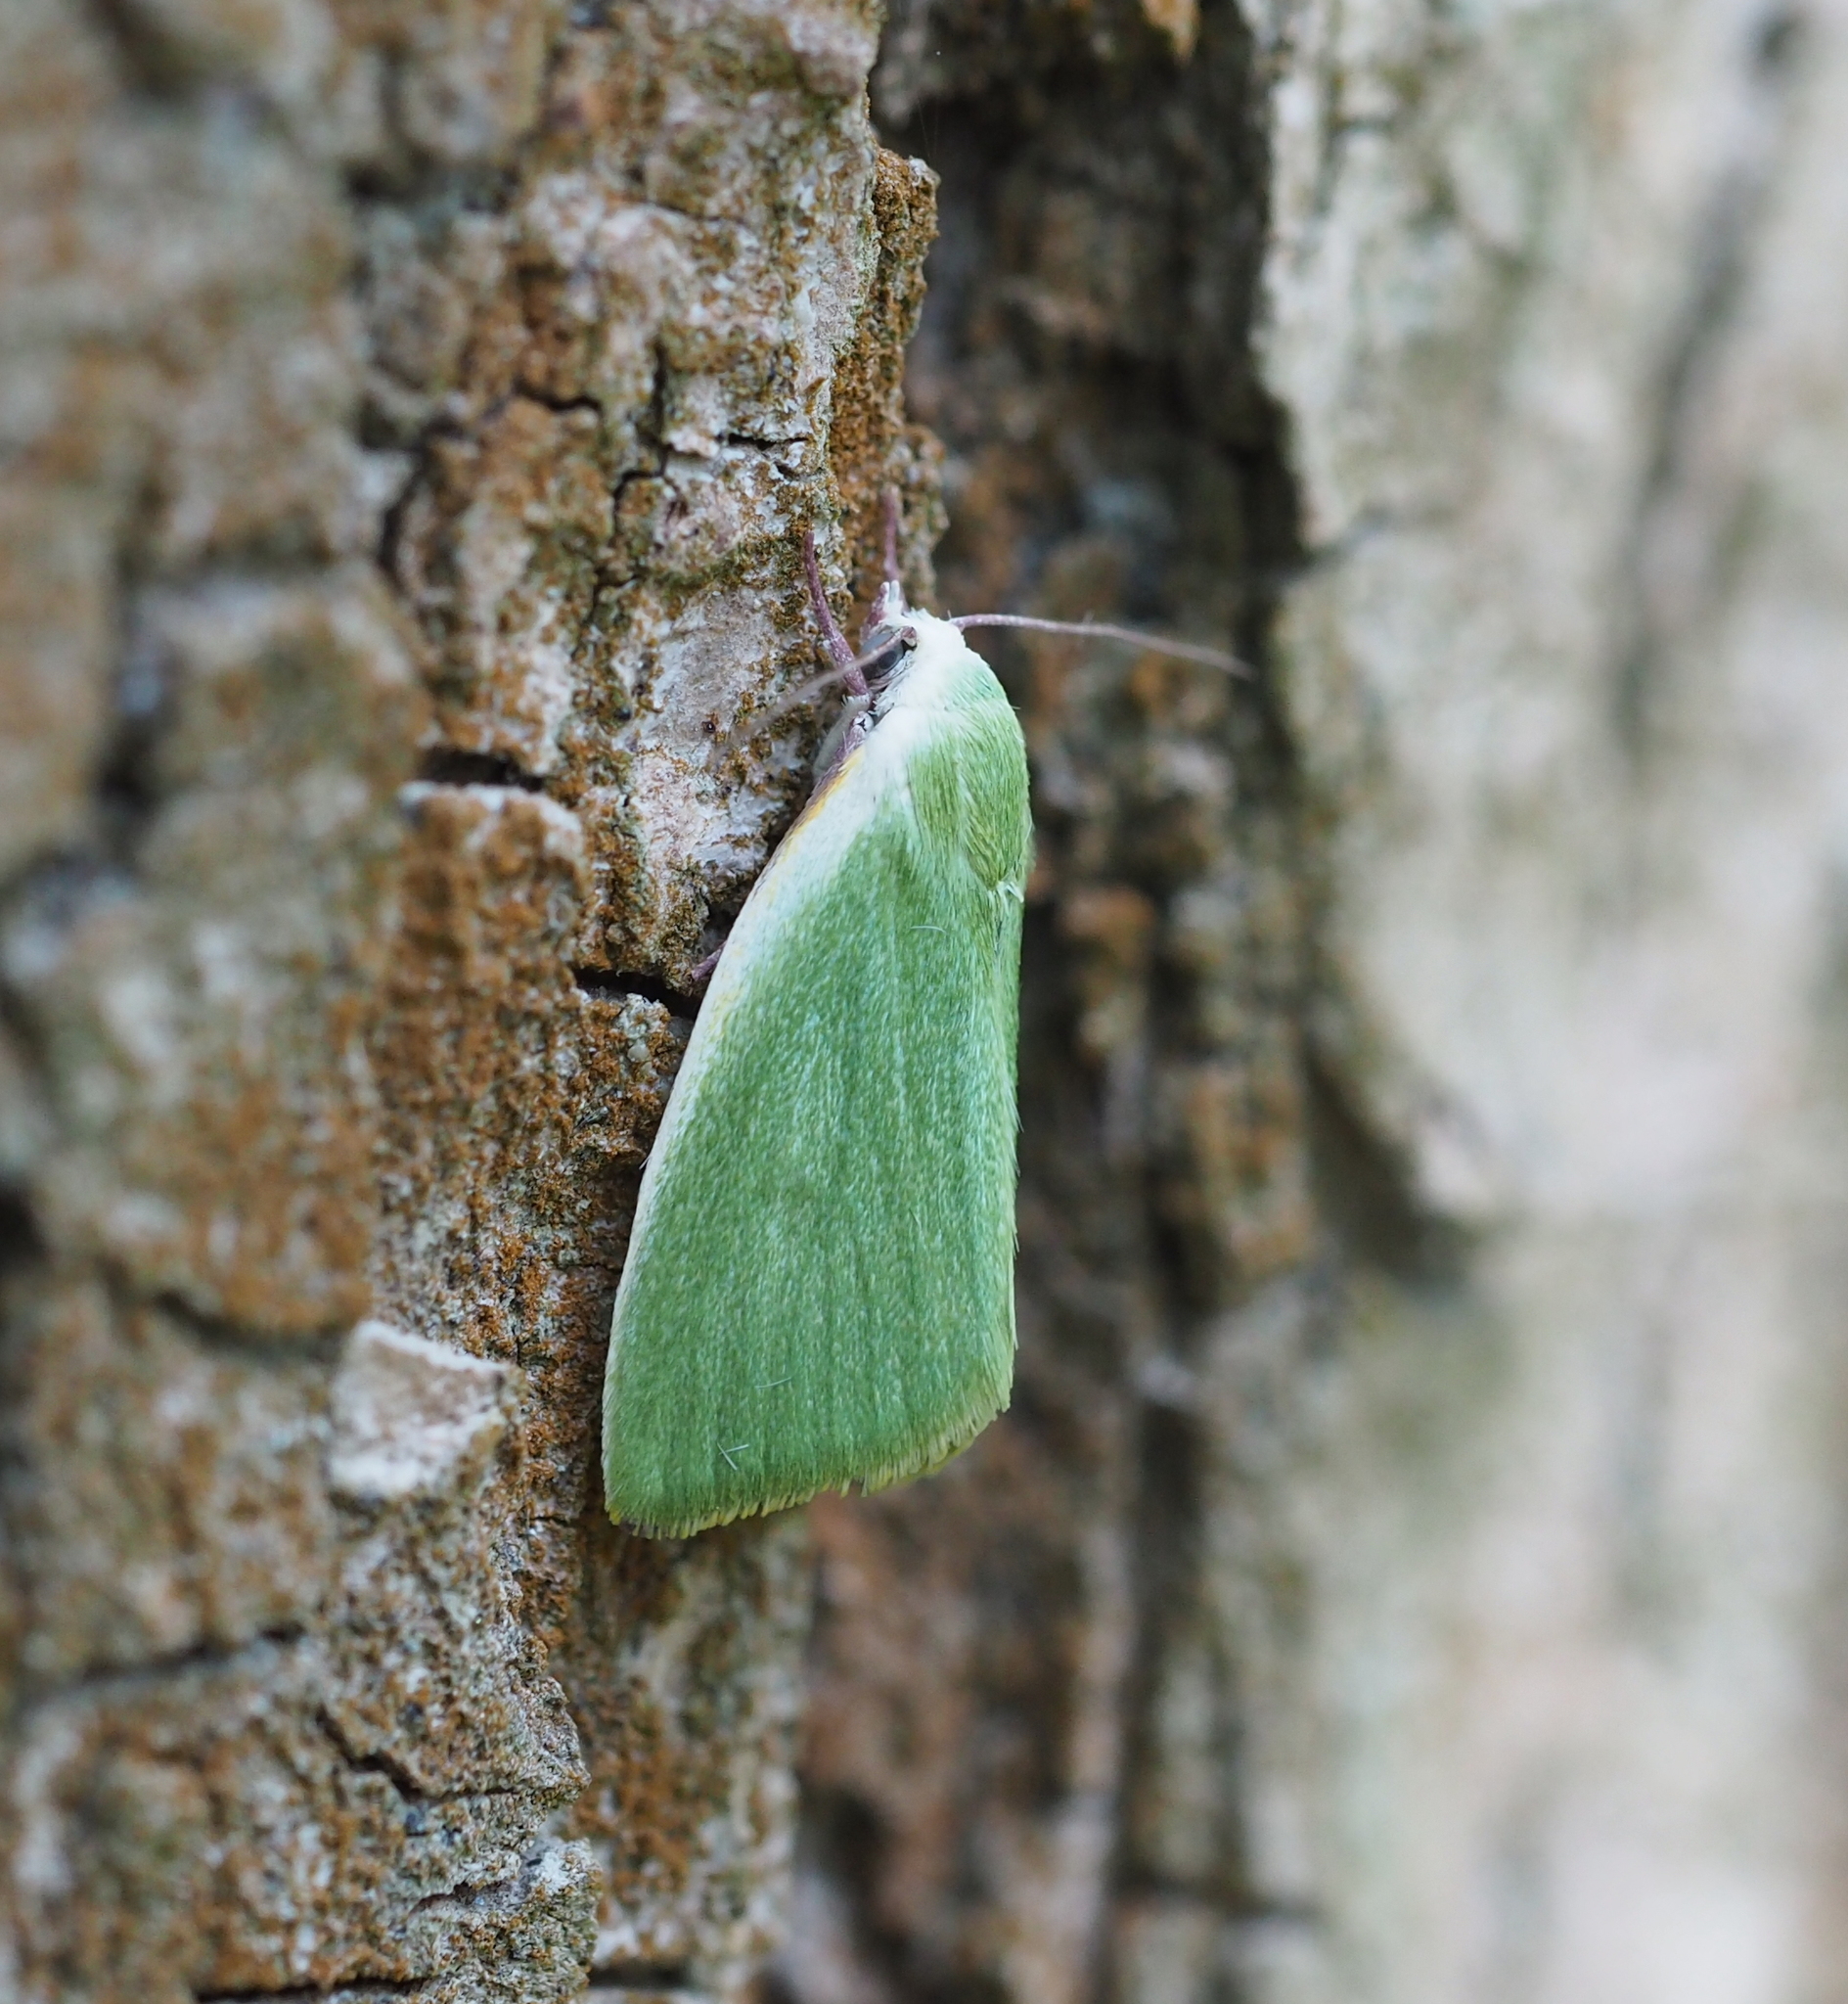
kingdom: Animalia
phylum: Arthropoda
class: Insecta
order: Lepidoptera
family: Nolidae
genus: Earias
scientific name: Earias clorana
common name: Cream-bordered green pea
